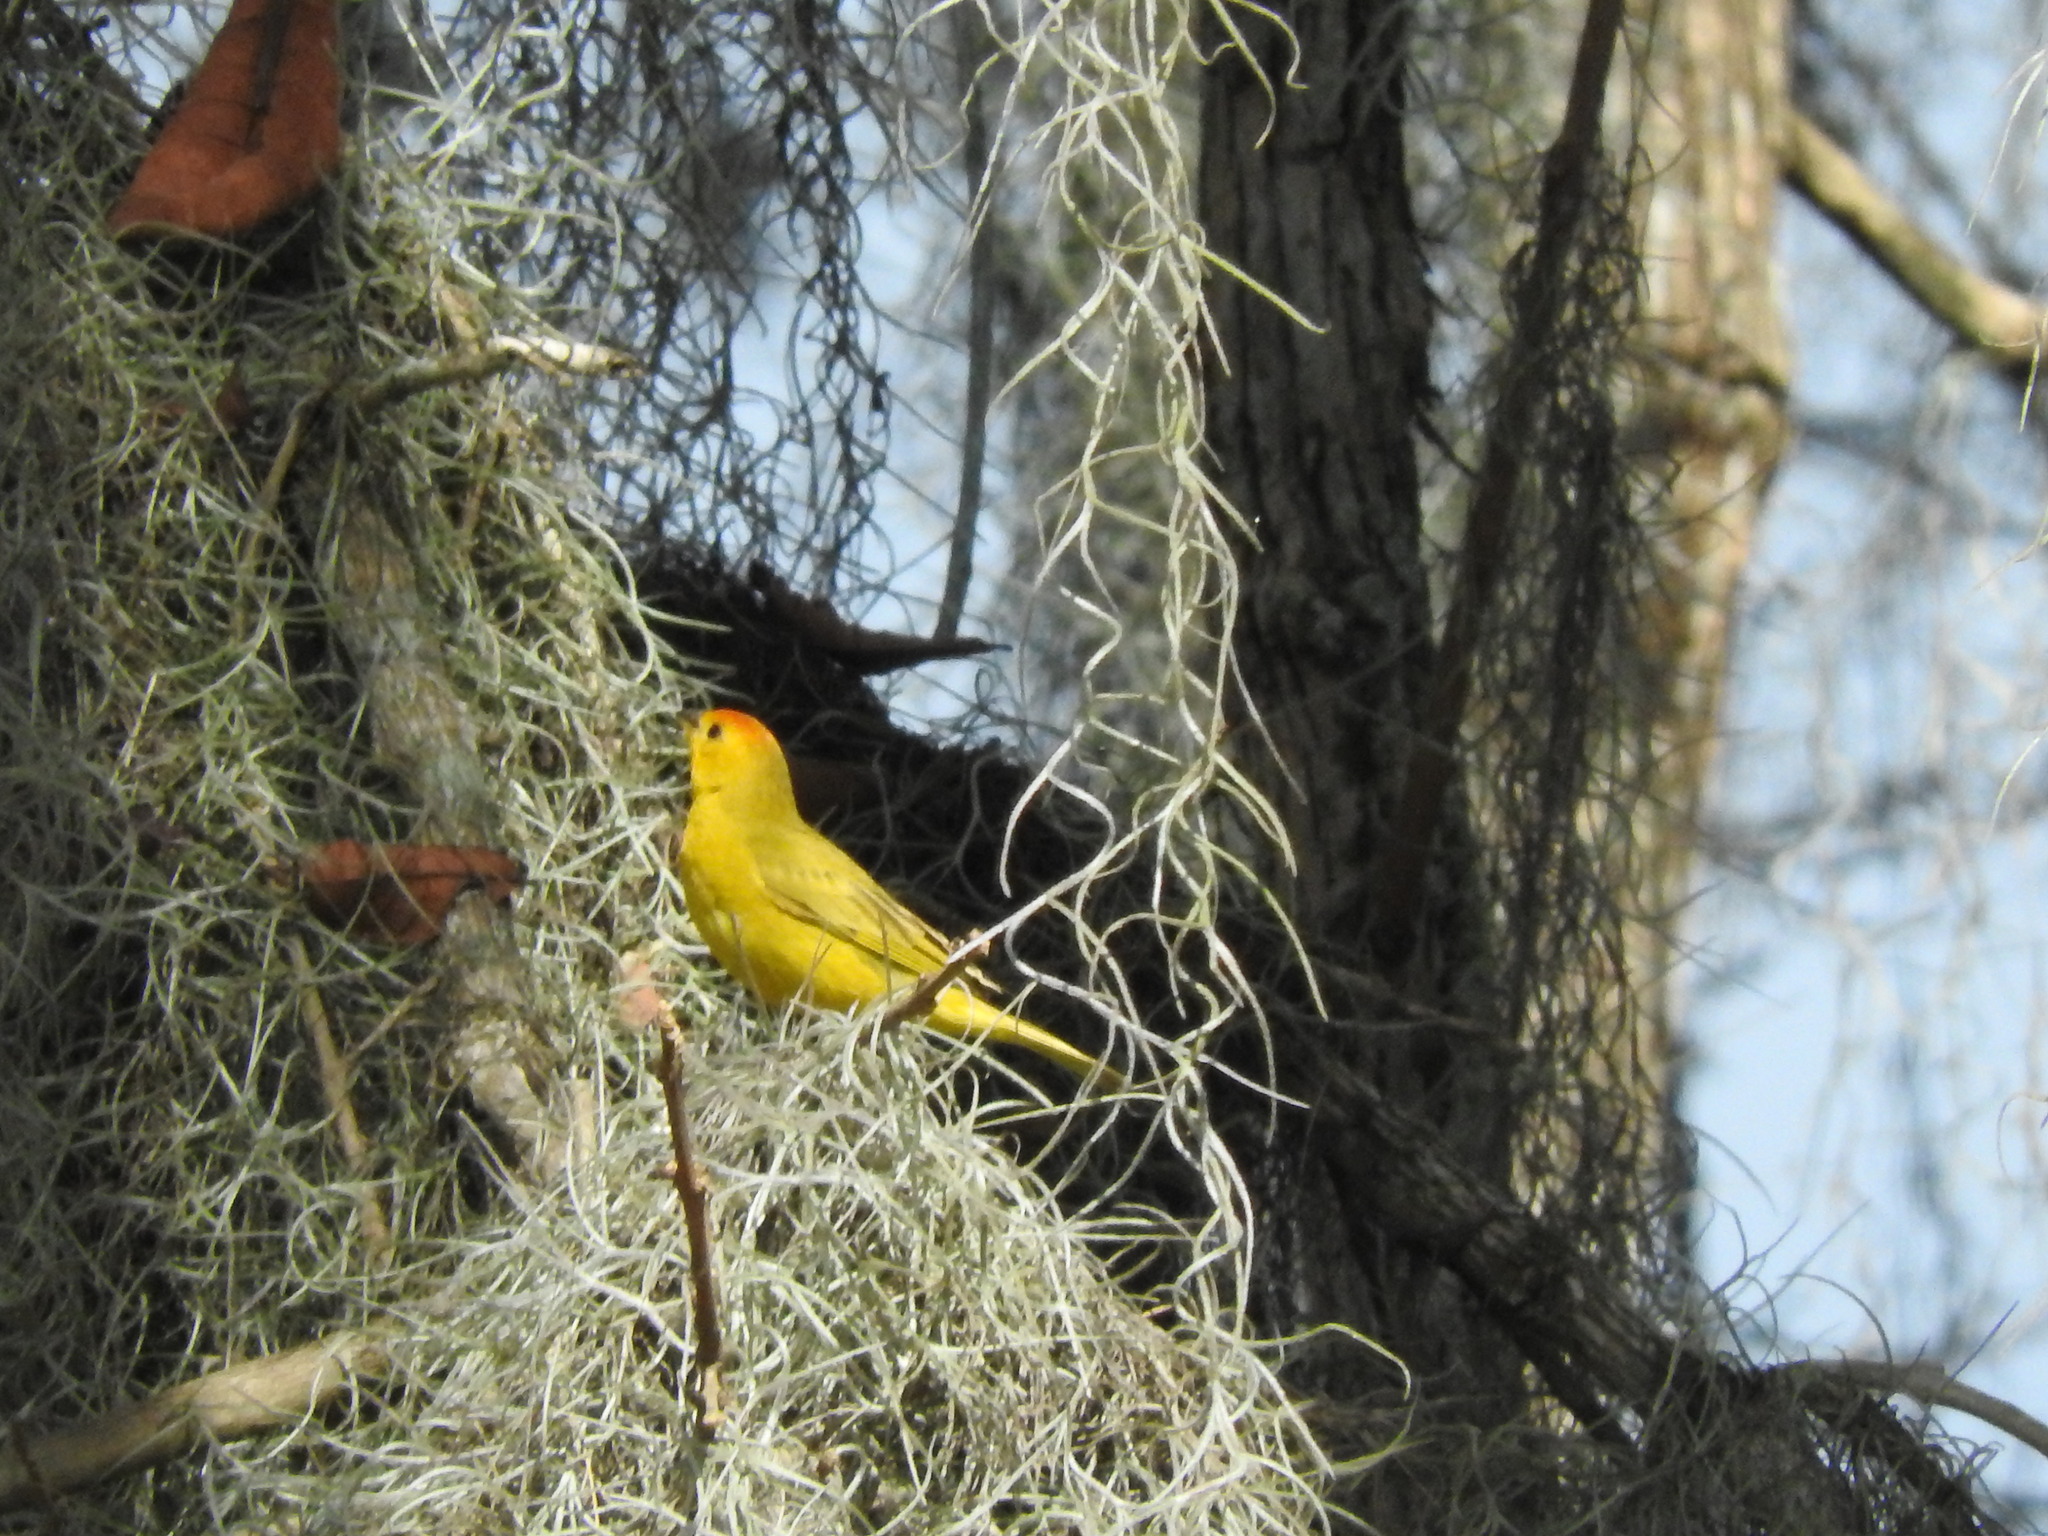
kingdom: Animalia
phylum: Chordata
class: Aves
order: Passeriformes
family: Thraupidae
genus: Sicalis
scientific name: Sicalis flaveola
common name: Saffron finch
